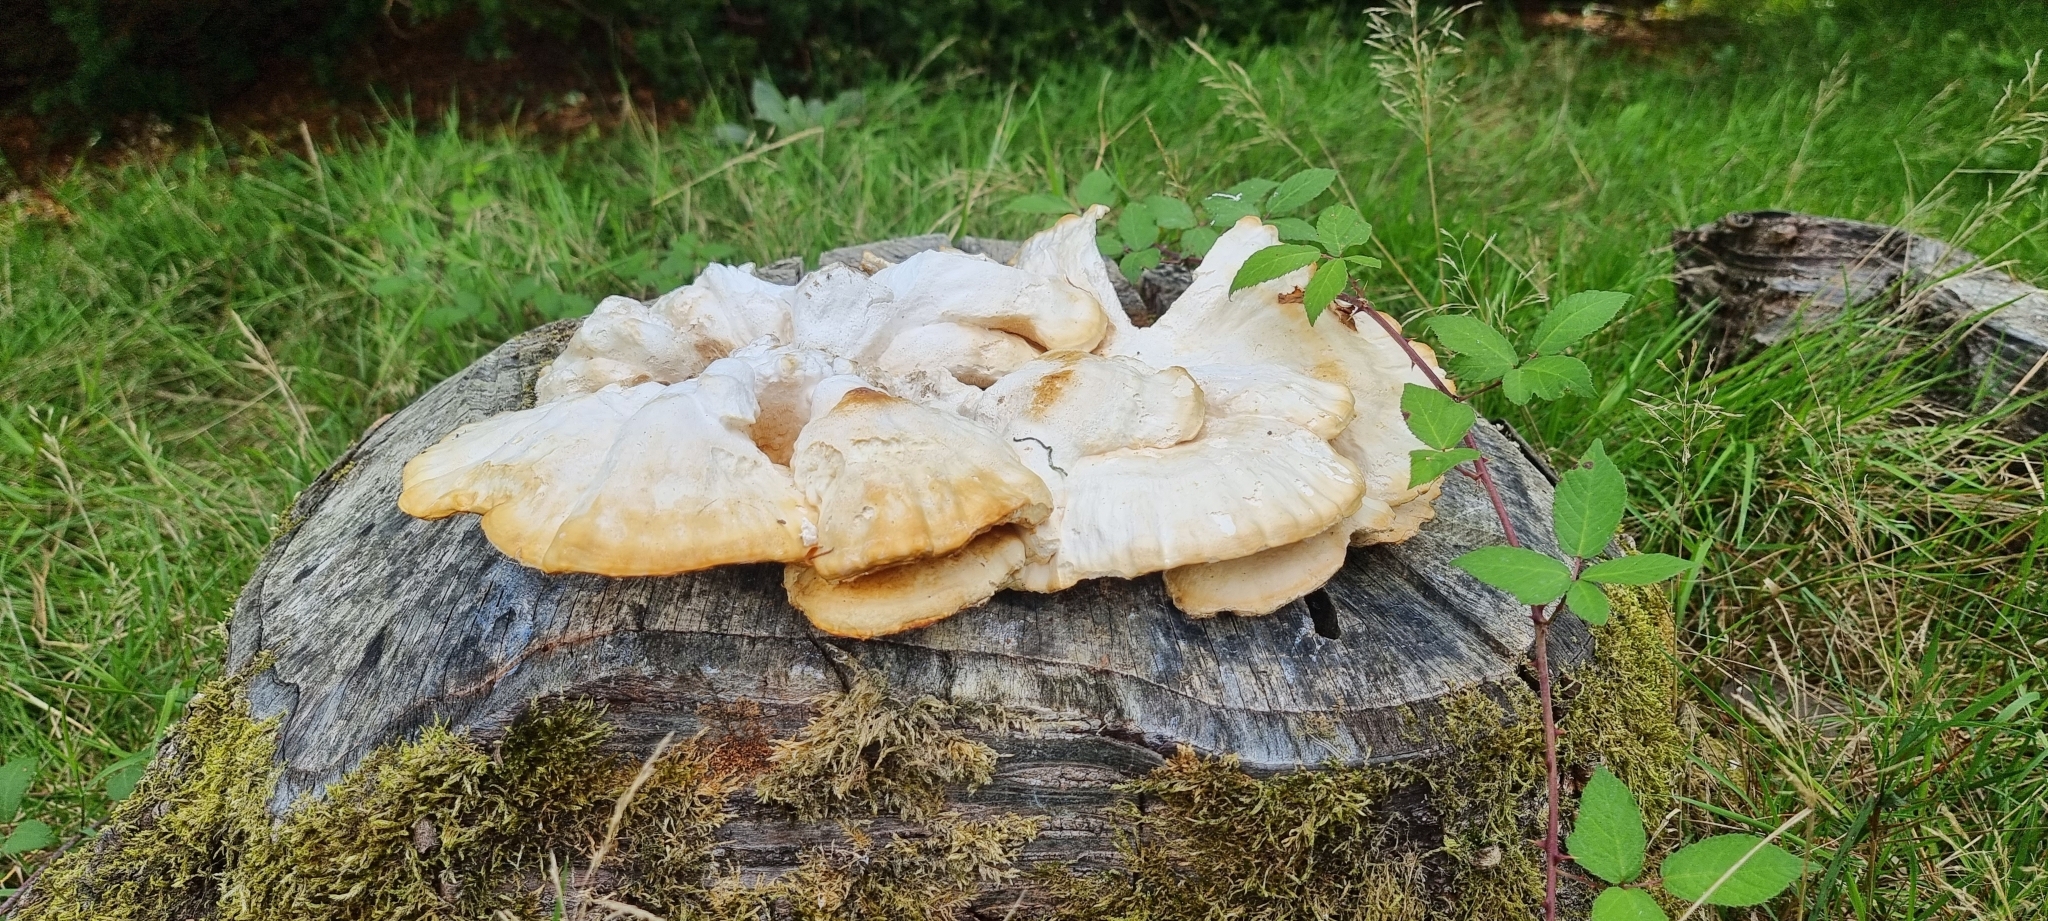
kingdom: Fungi
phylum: Basidiomycota
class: Agaricomycetes
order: Polyporales
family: Laetiporaceae
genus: Laetiporus
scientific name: Laetiporus sulphureus
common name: Chicken of the woods
